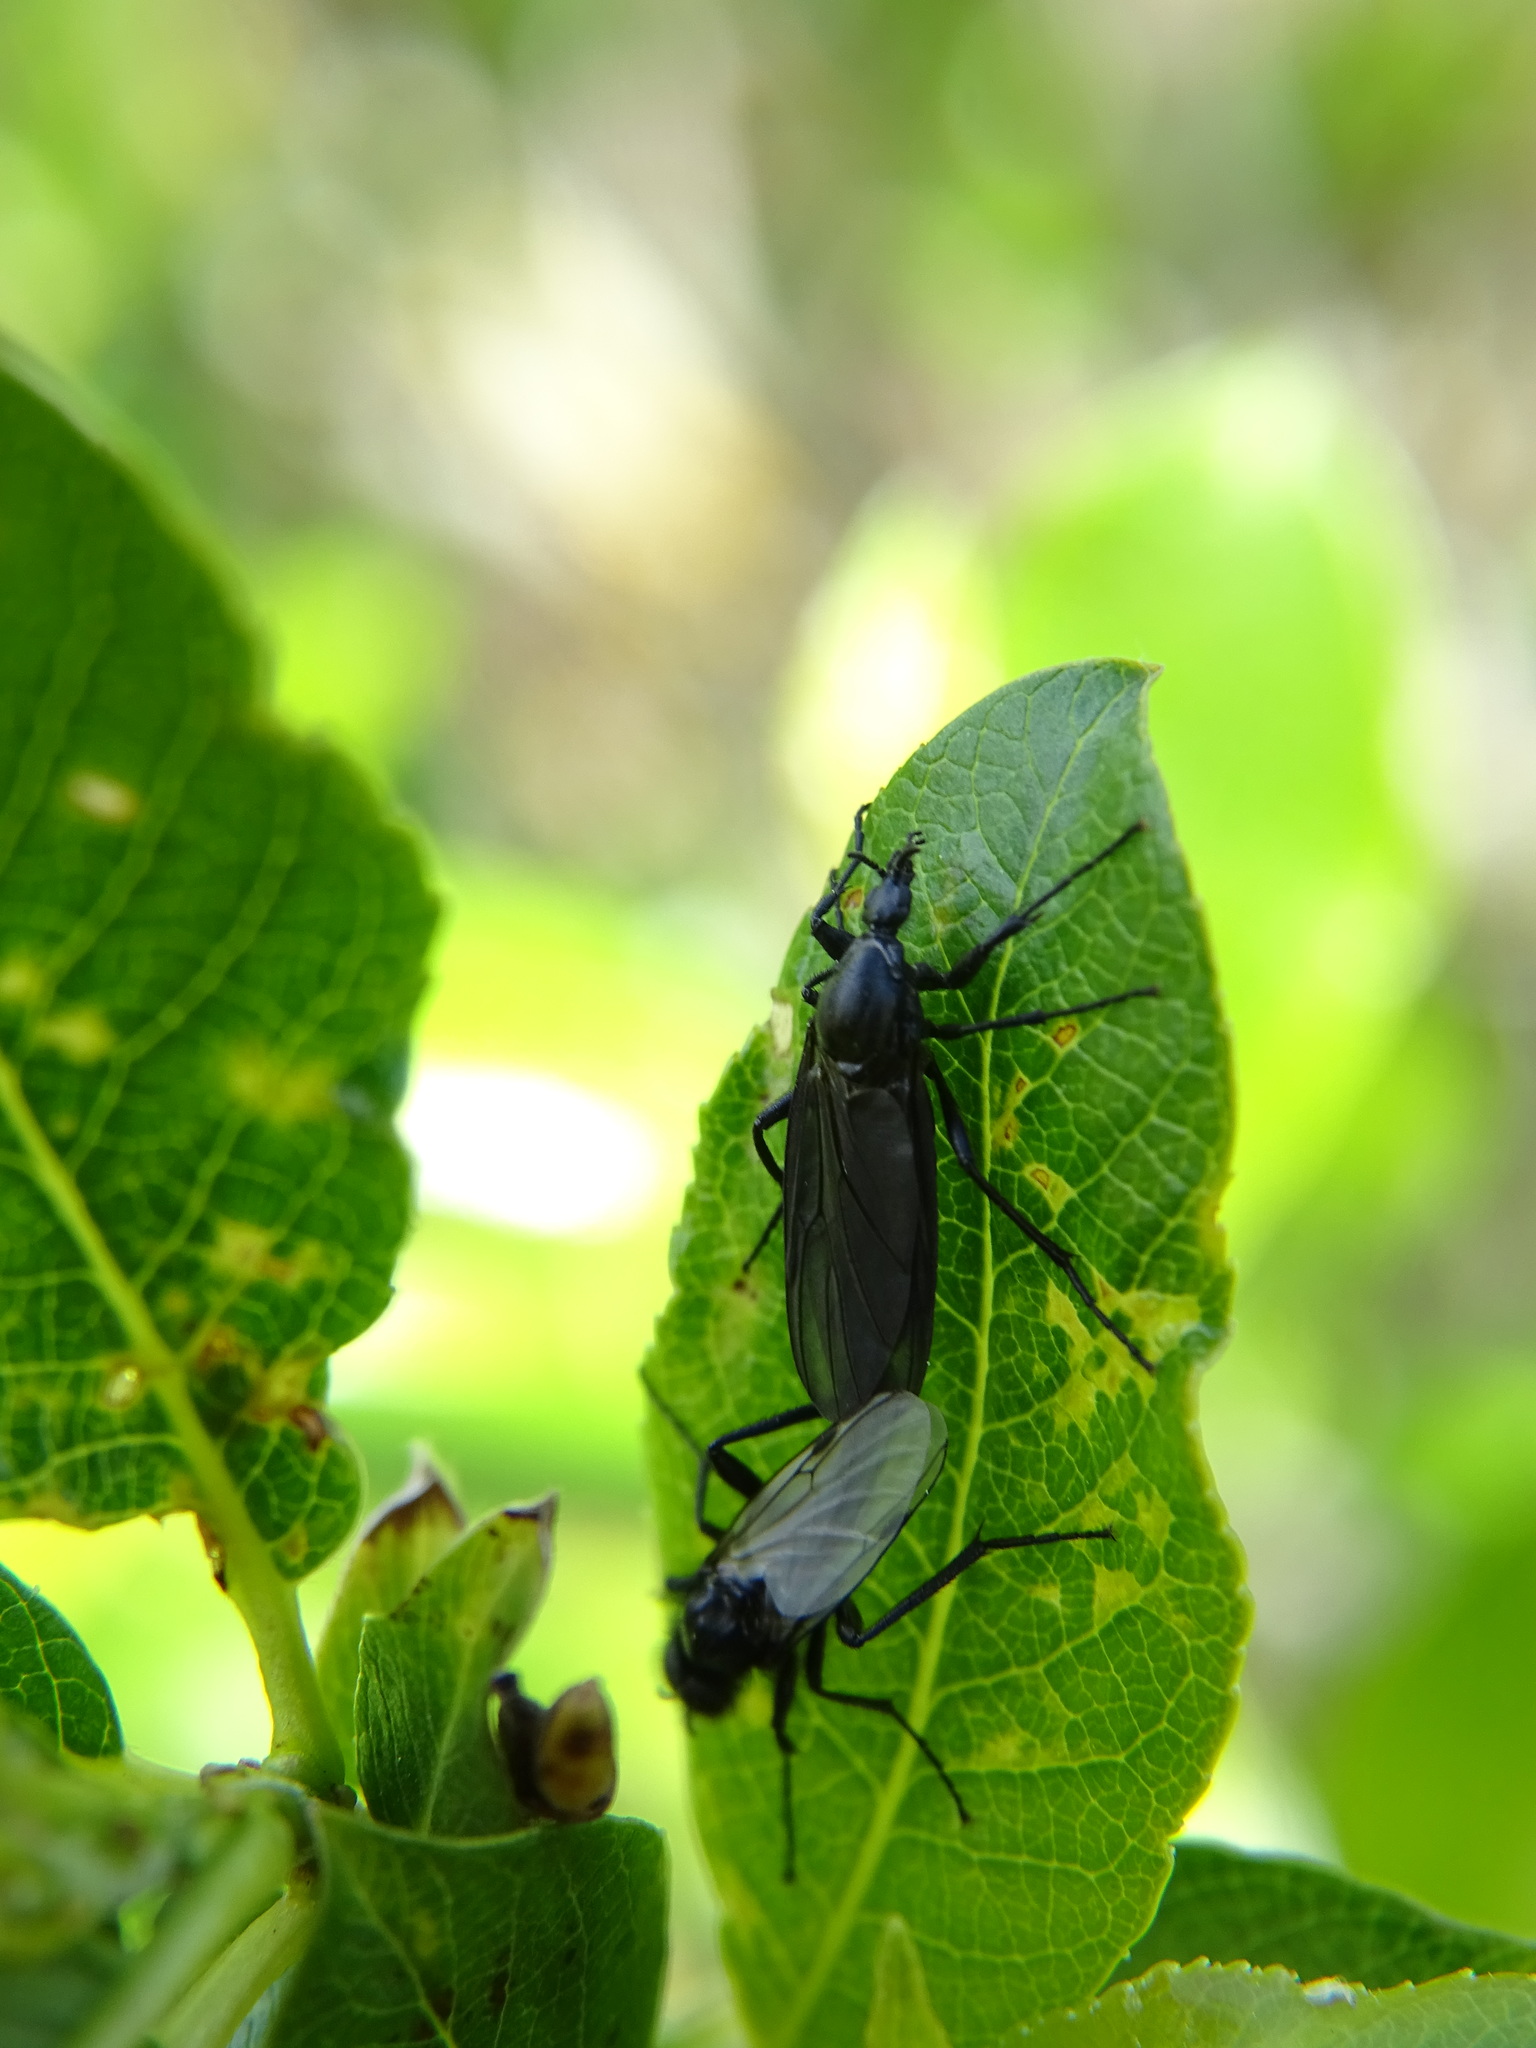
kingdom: Animalia
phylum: Arthropoda
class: Insecta
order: Diptera
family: Bibionidae
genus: Bibio
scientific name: Bibio leucoptera
